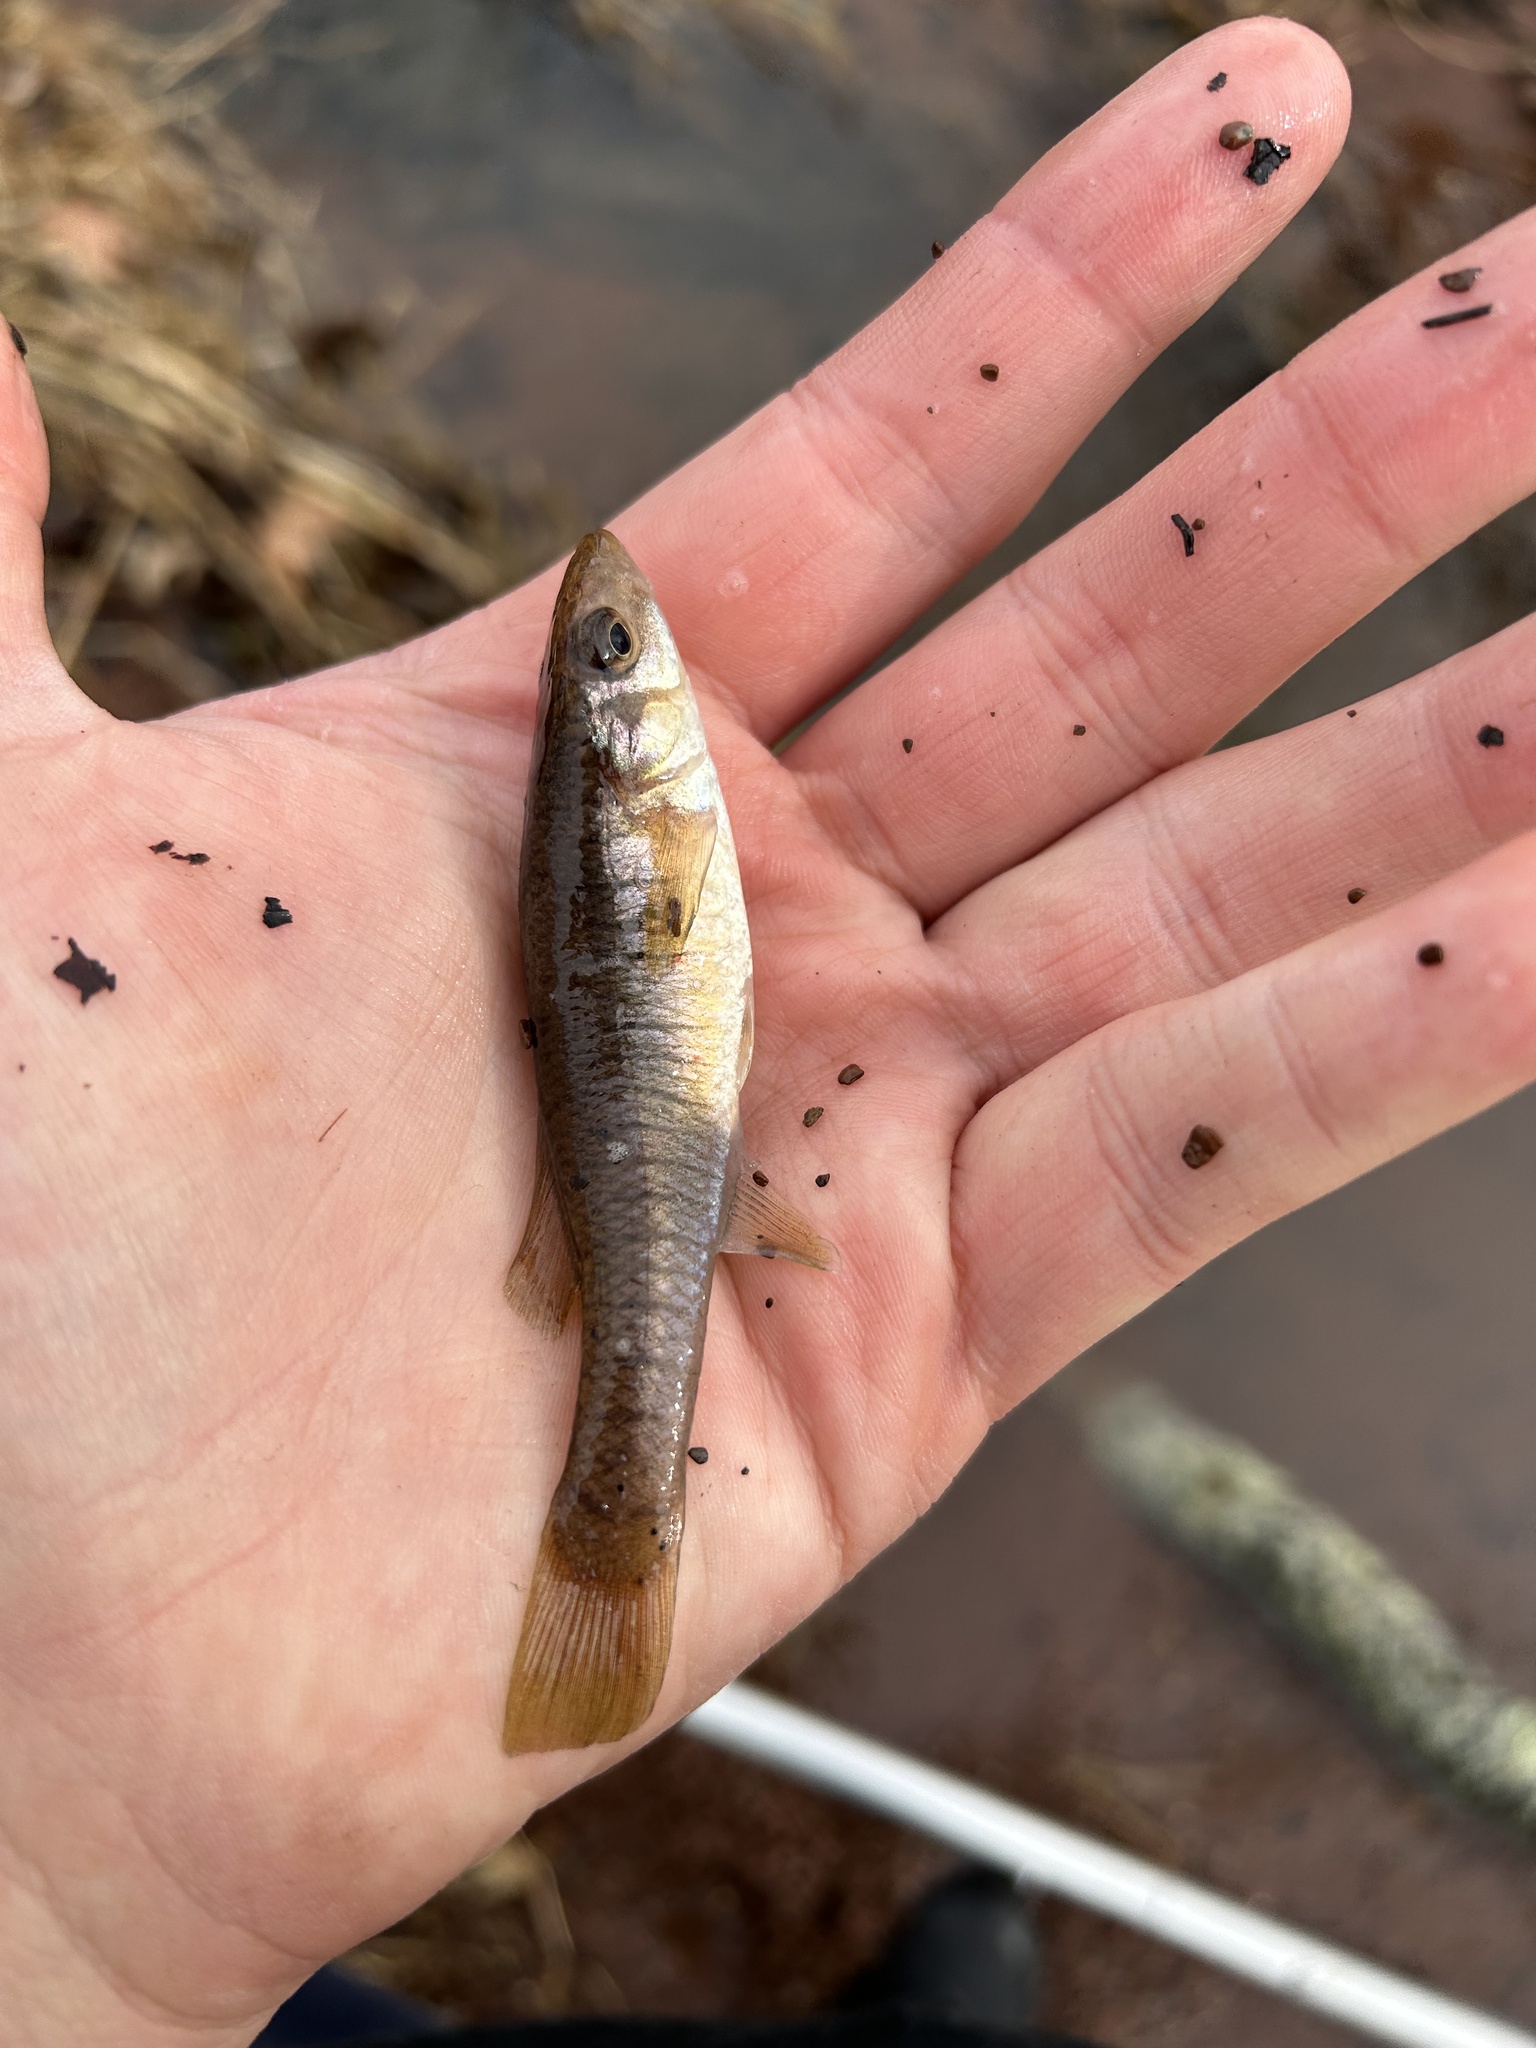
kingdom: Animalia
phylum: Chordata
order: Cyprinodontiformes
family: Fundulidae
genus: Fundulus
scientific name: Fundulus diaphanus
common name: Banded killifish
